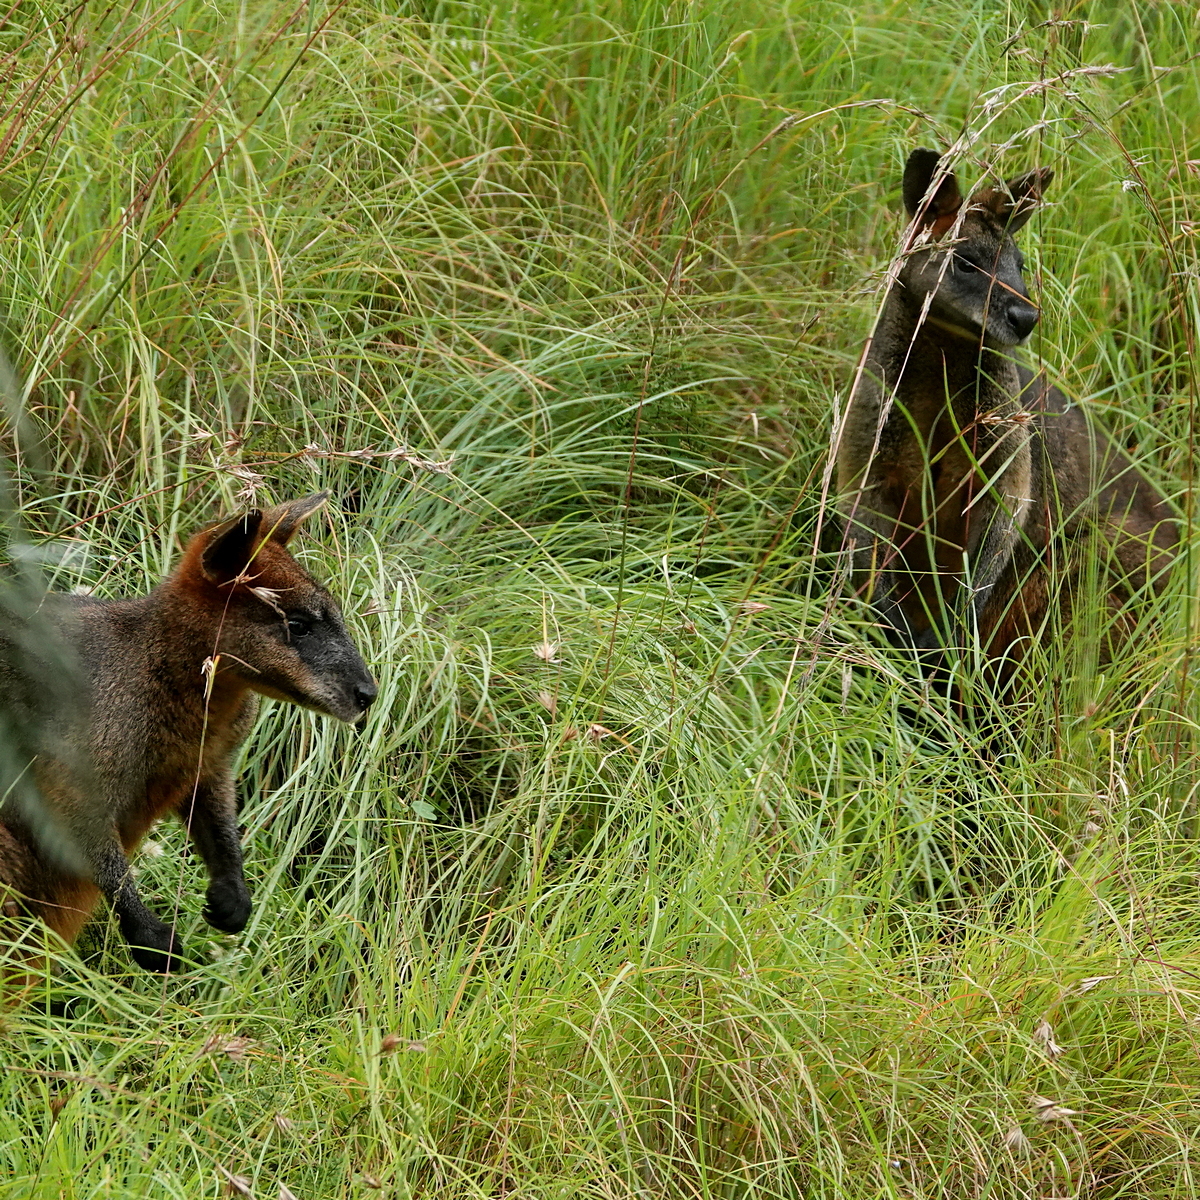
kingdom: Animalia
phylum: Chordata
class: Mammalia
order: Diprotodontia
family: Macropodidae
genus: Wallabia
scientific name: Wallabia bicolor
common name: Swamp wallaby
